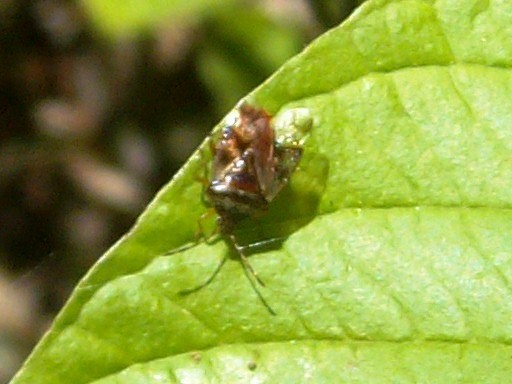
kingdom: Animalia
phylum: Arthropoda
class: Insecta
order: Hemiptera
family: Acanthosomatidae
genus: Elasmucha
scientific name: Elasmucha lateralis
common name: Shield bug
